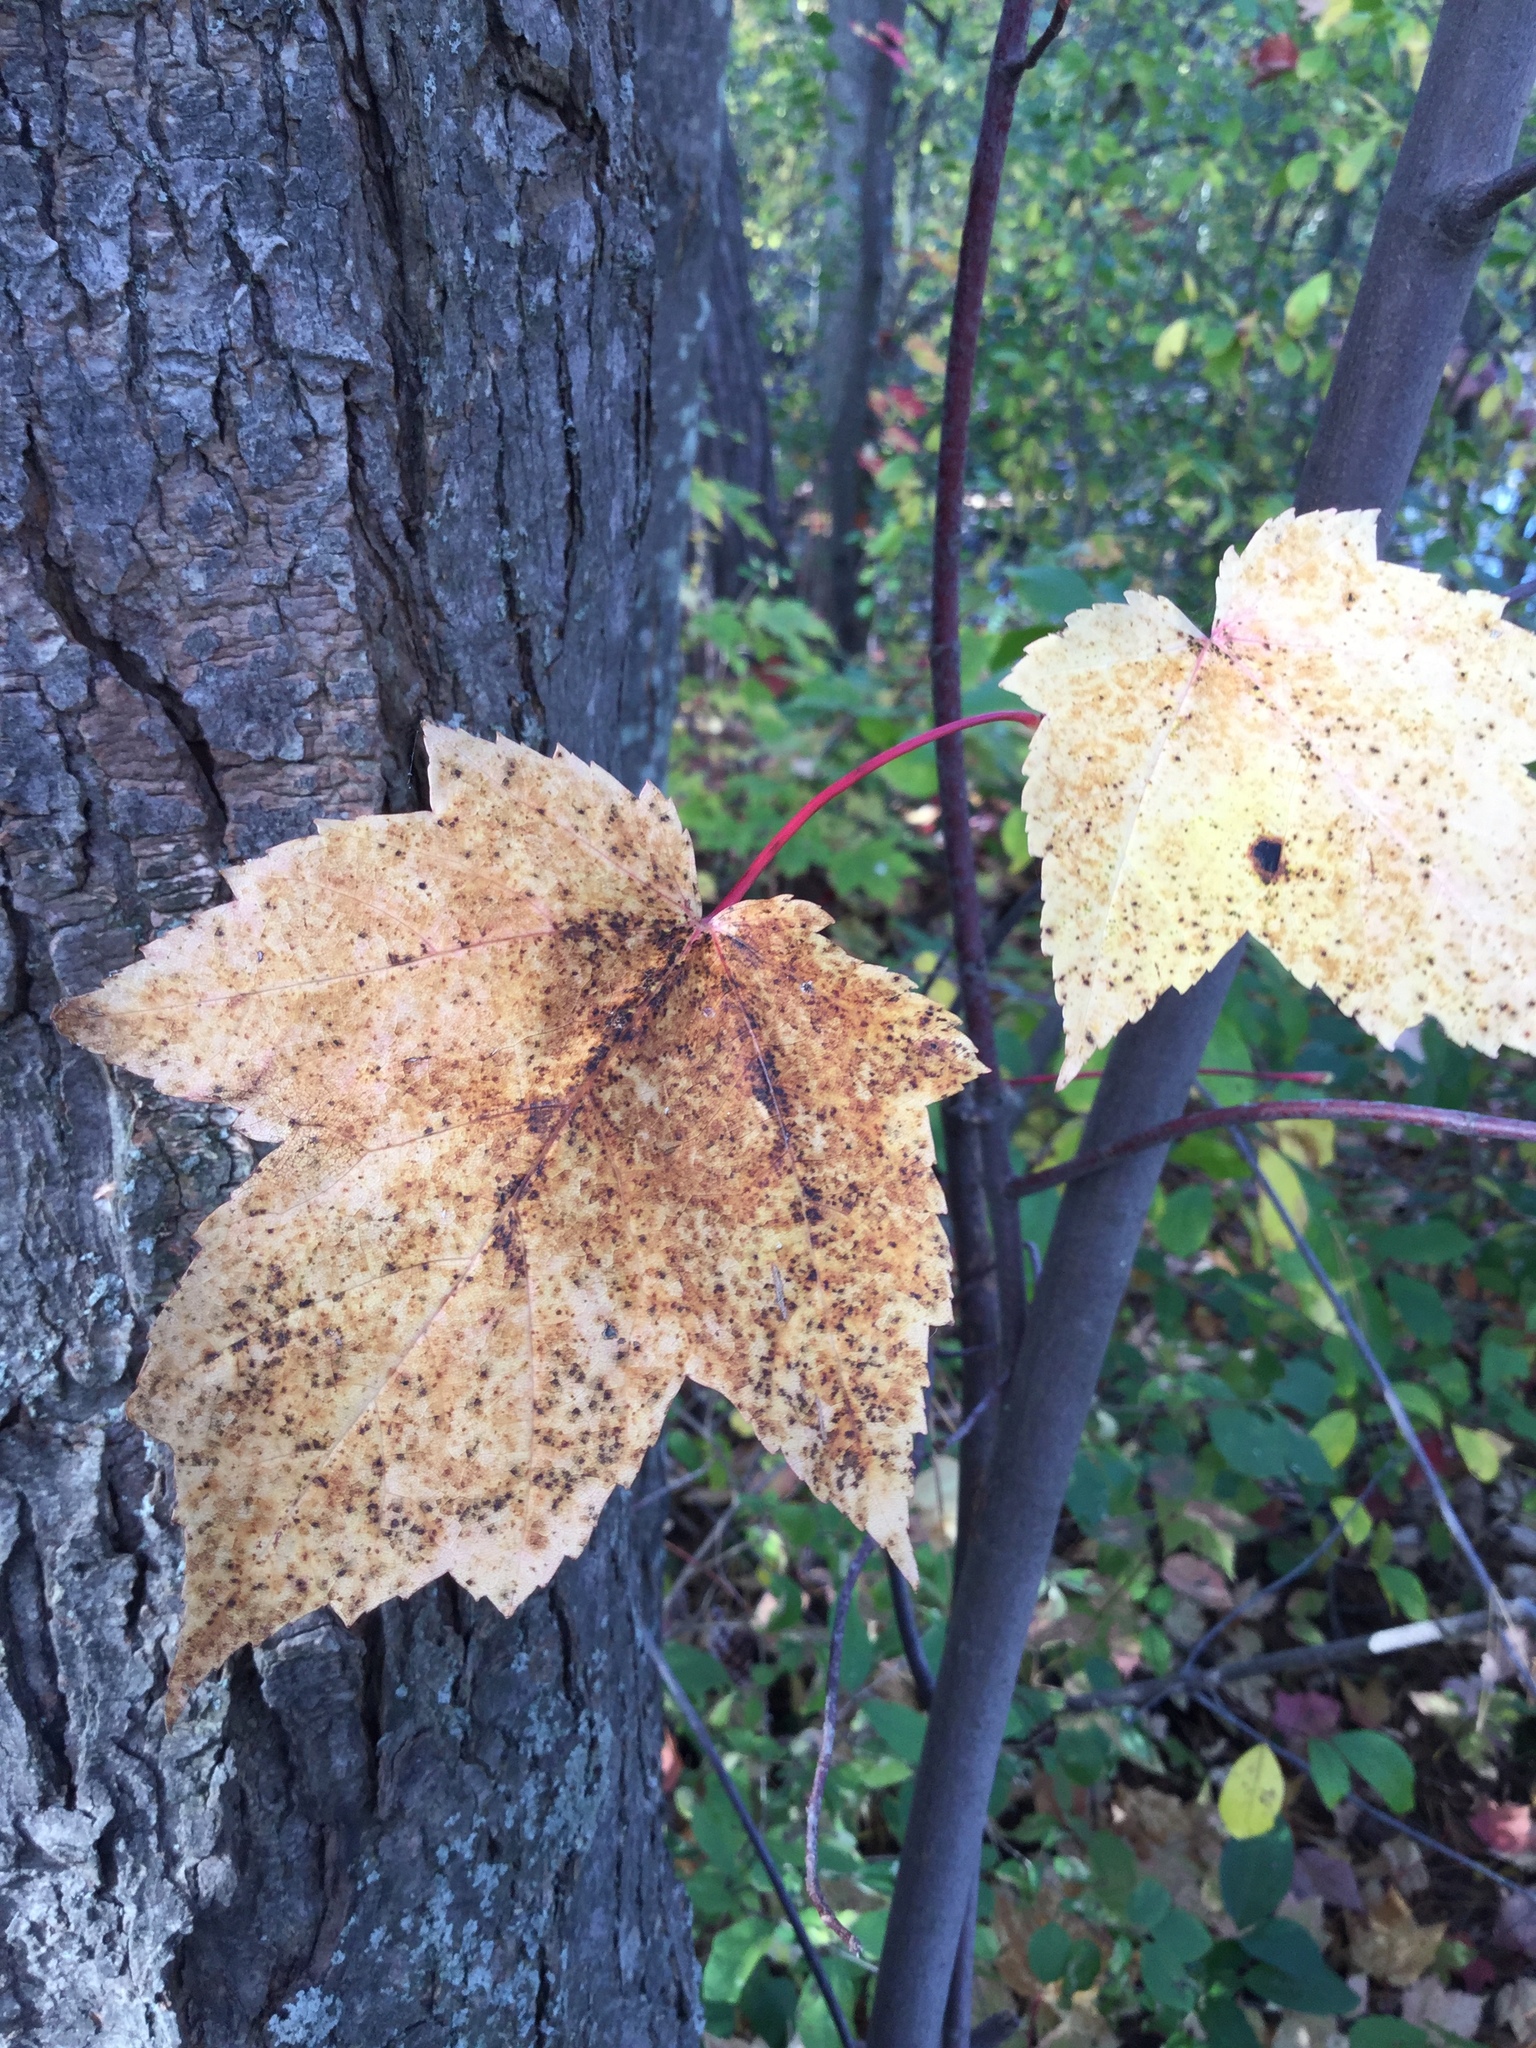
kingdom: Plantae
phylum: Tracheophyta
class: Magnoliopsida
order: Sapindales
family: Sapindaceae
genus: Acer
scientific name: Acer rubrum
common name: Red maple
